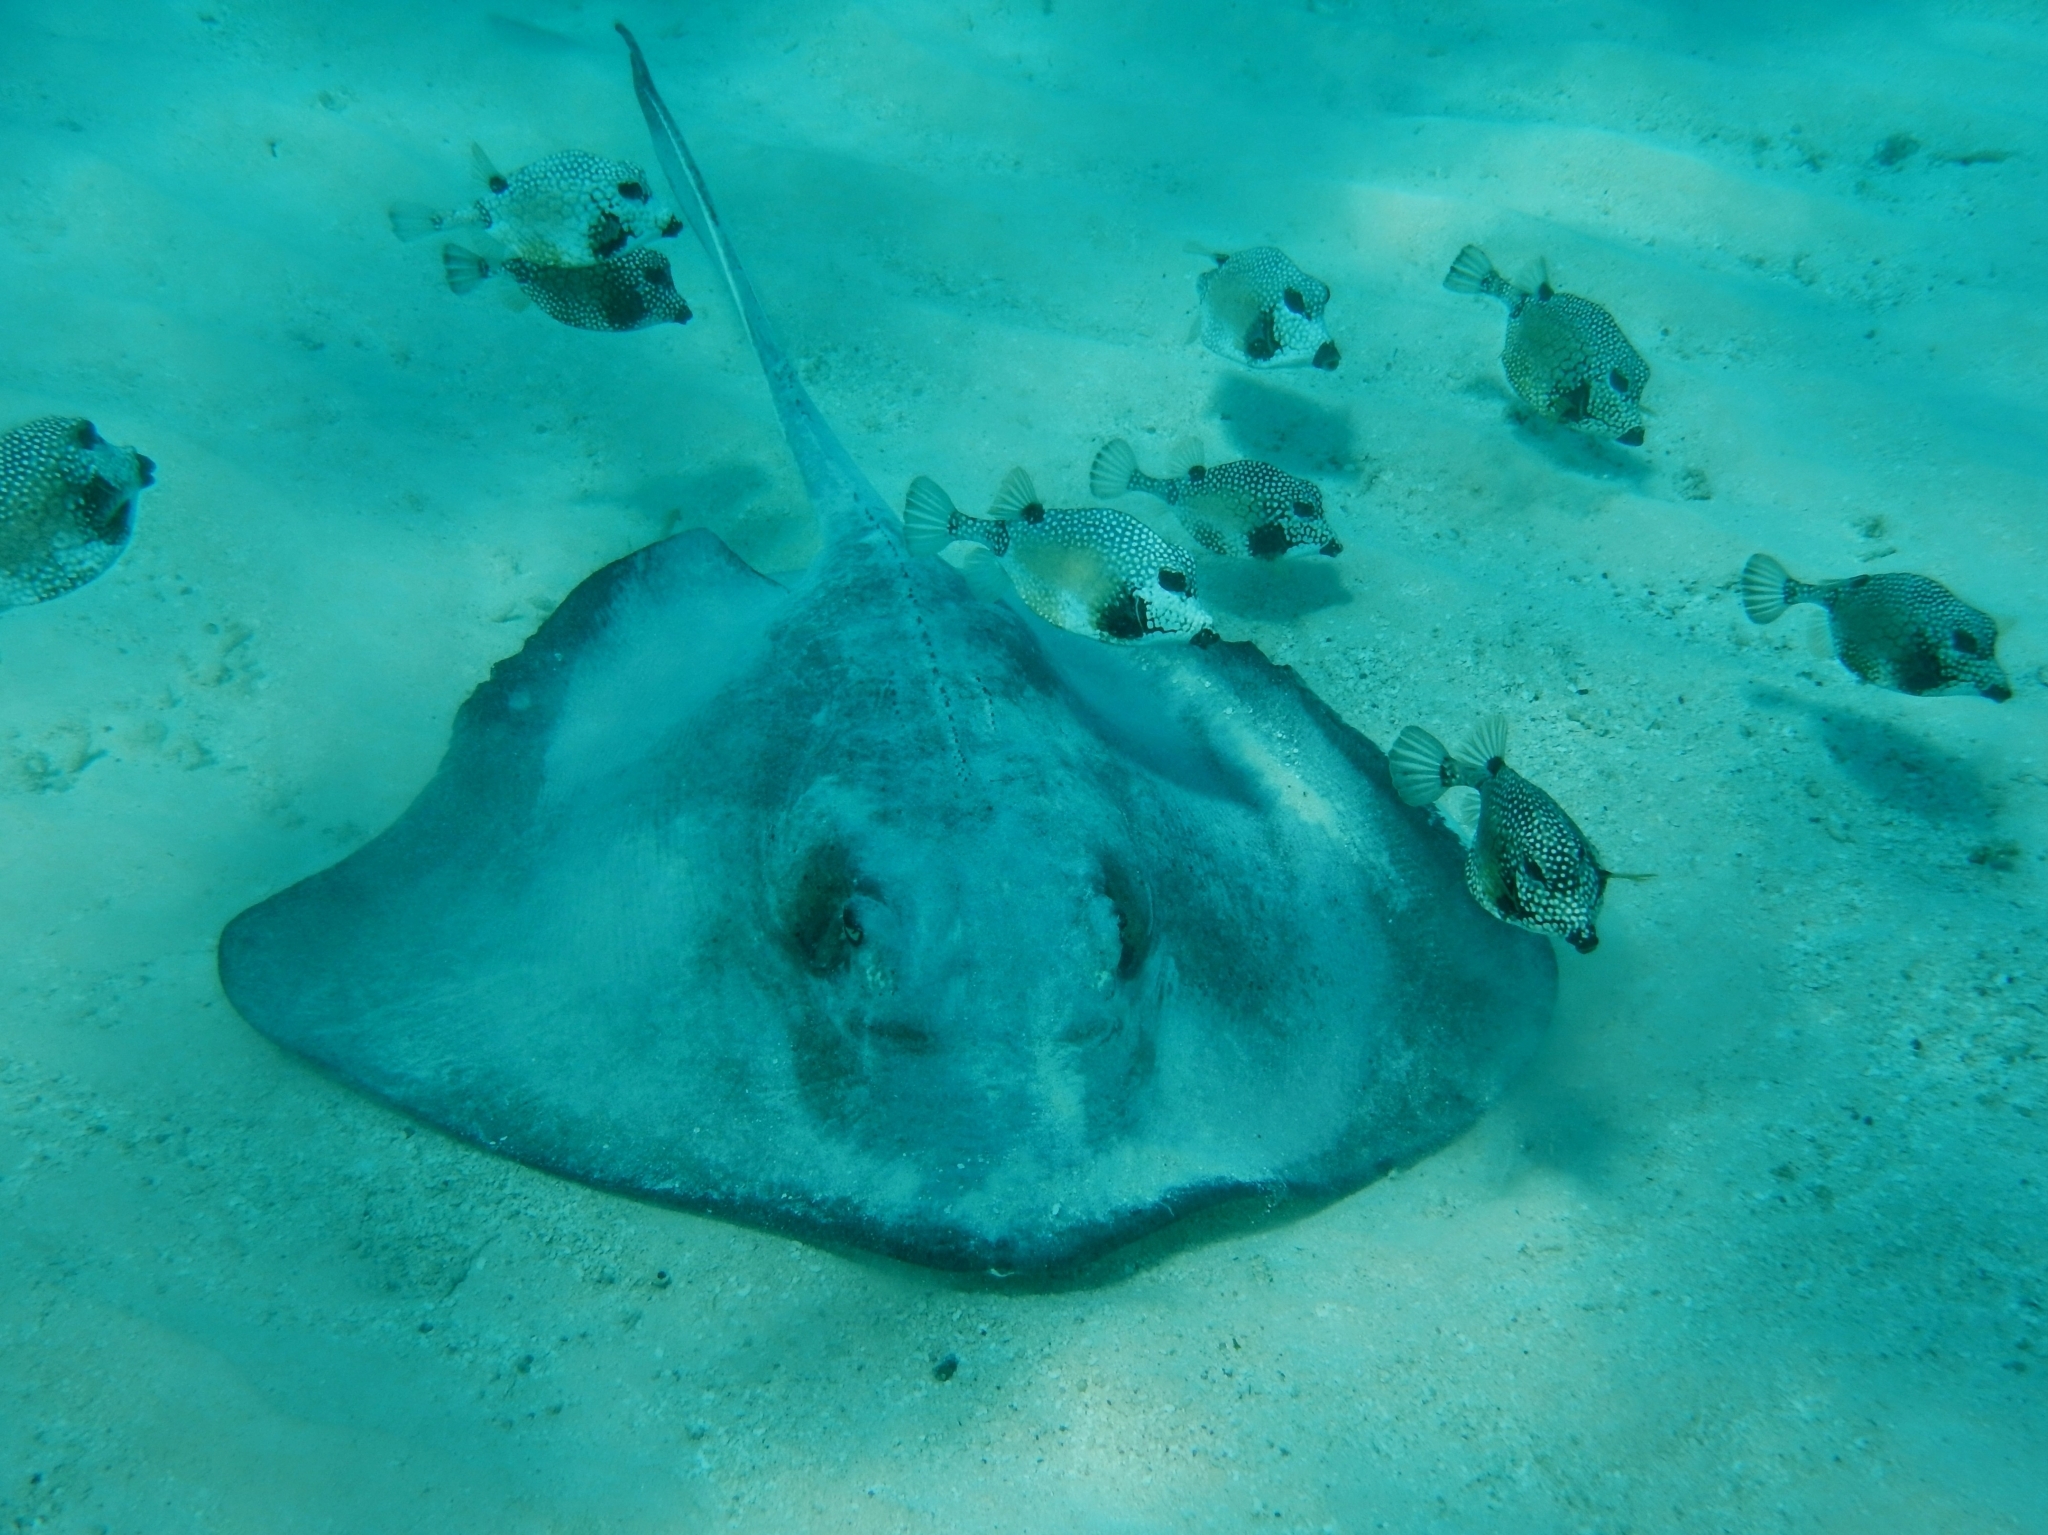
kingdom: Animalia
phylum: Chordata
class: Elasmobranchii
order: Myliobatiformes
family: Dasyatidae
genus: Hypanus
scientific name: Hypanus americanus
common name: Southern stingray
